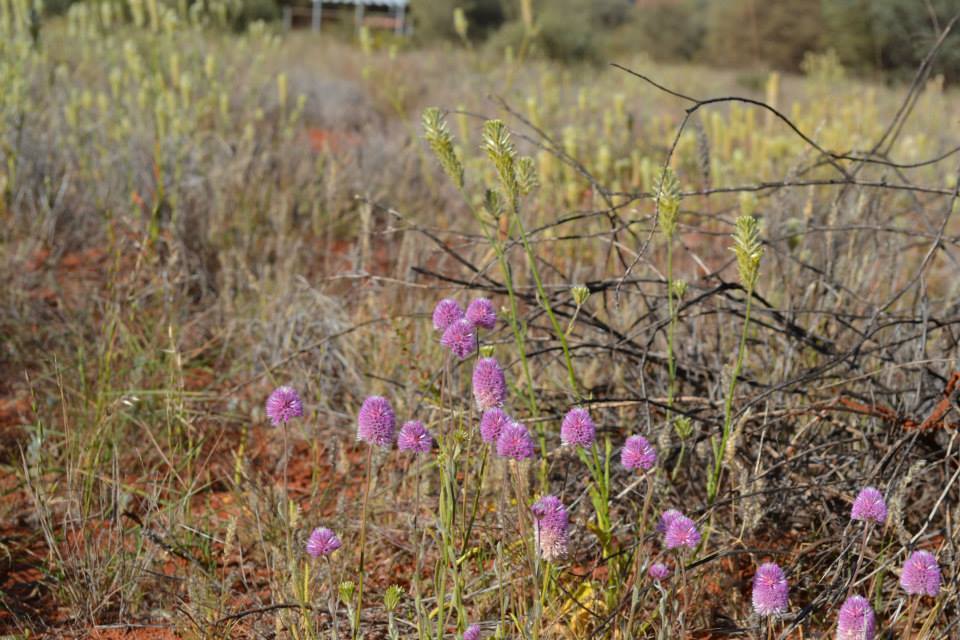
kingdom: Plantae
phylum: Tracheophyta
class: Magnoliopsida
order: Caryophyllales
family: Amaranthaceae
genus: Ptilotus
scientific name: Ptilotus helipteroides
